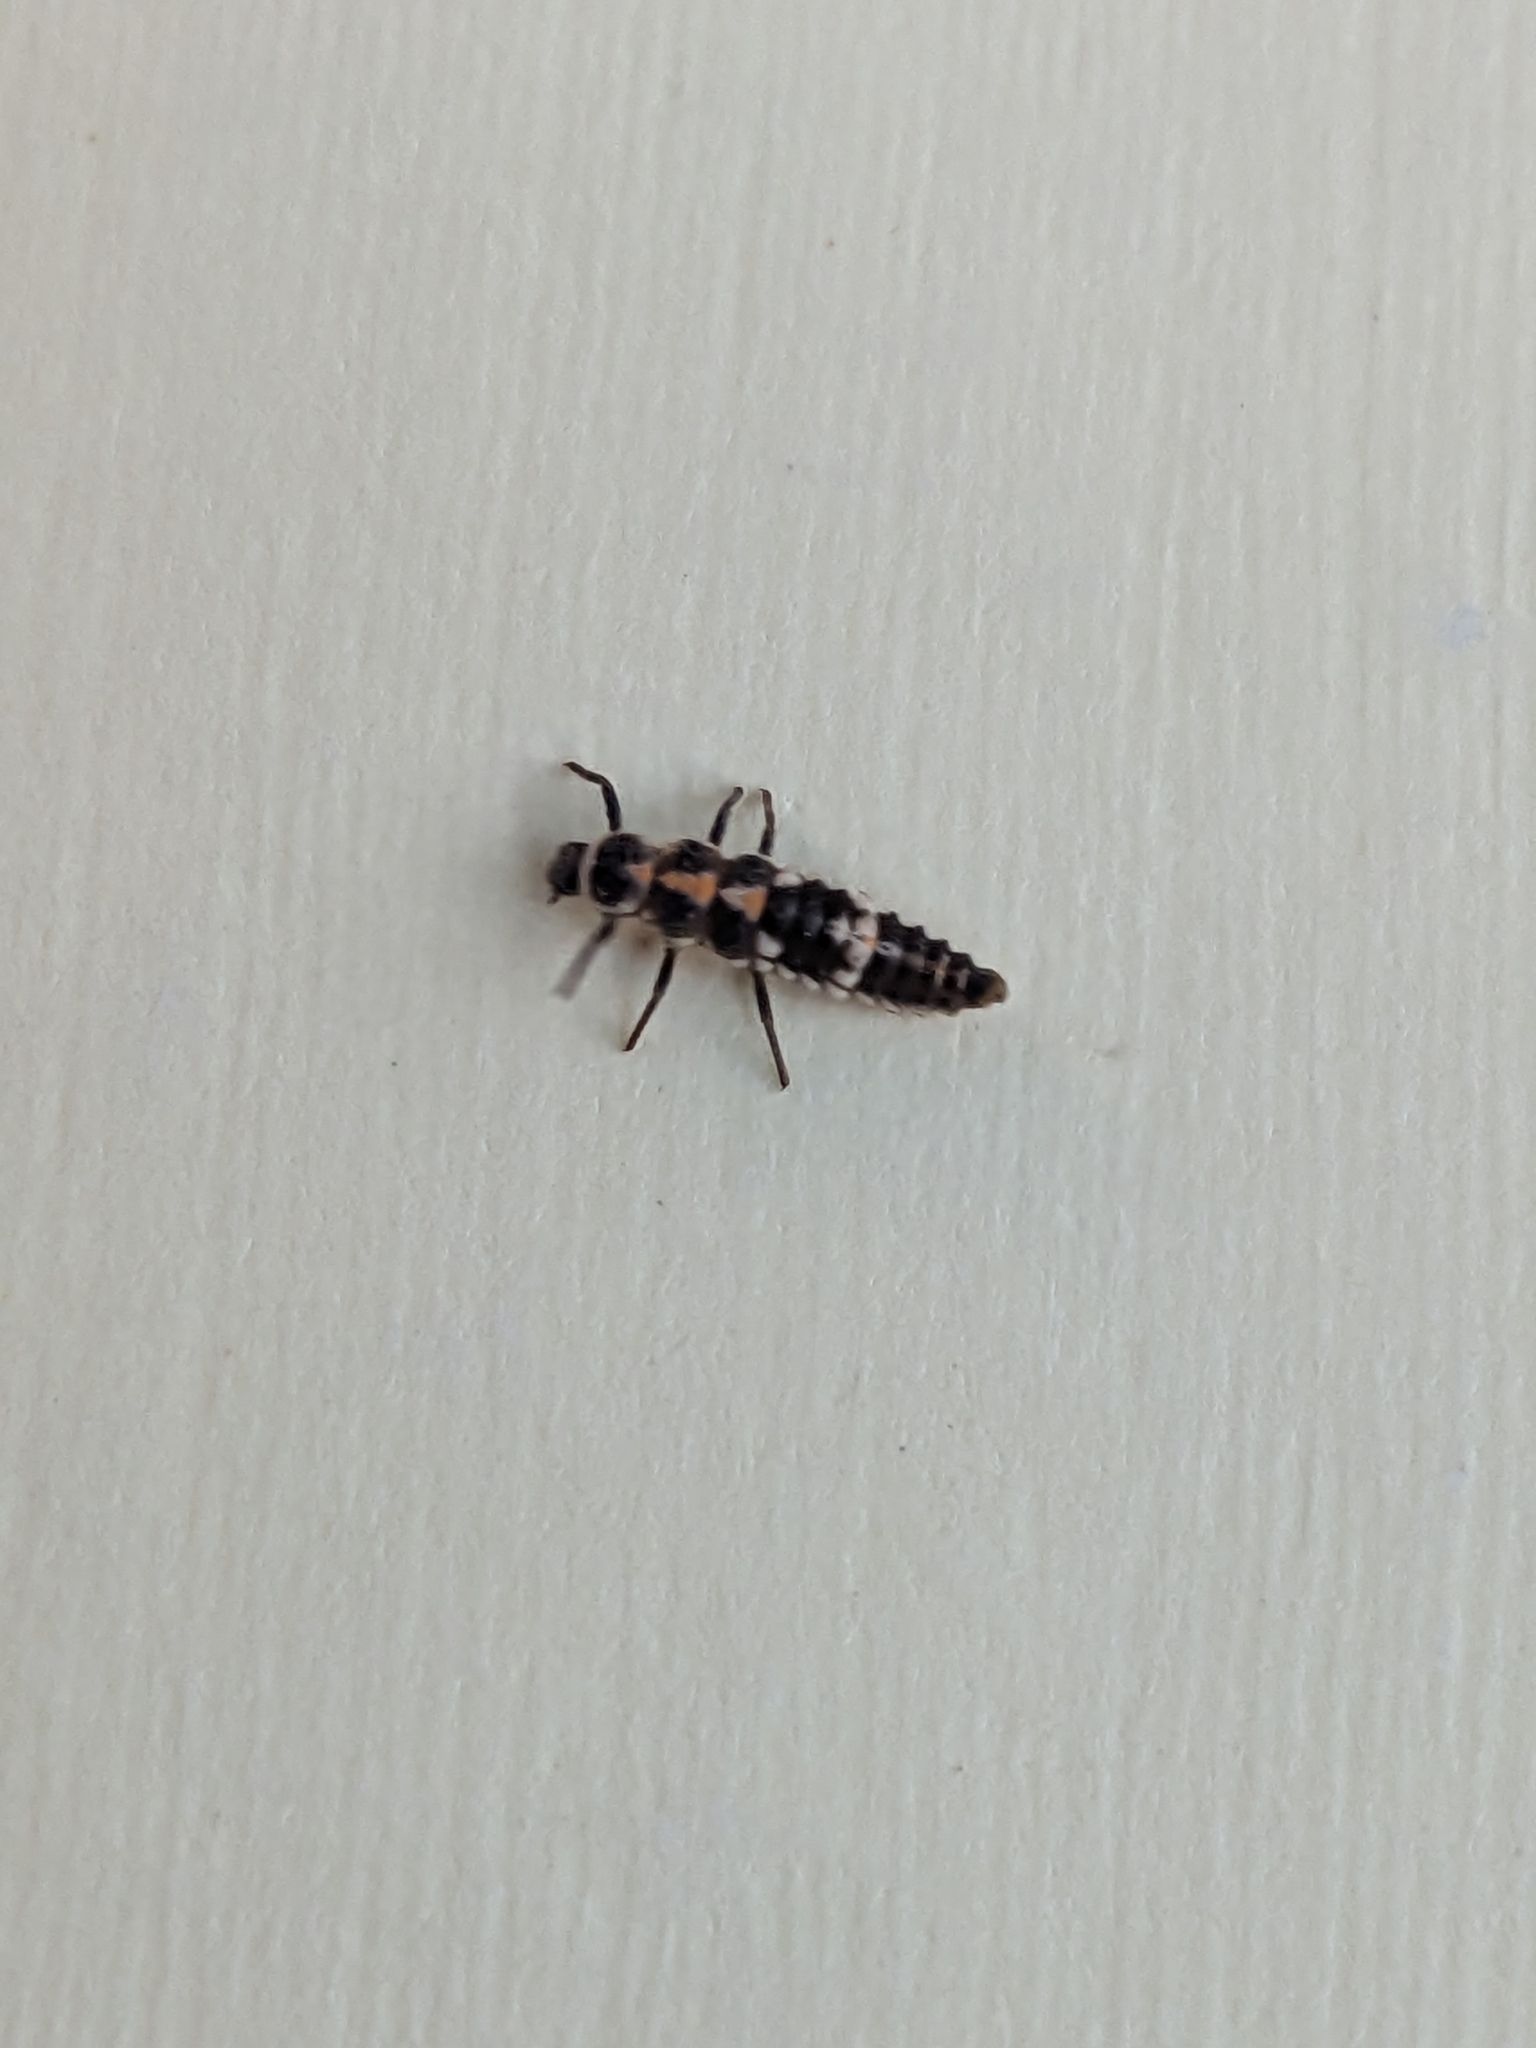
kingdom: Animalia
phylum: Arthropoda
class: Insecta
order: Coleoptera
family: Coccinellidae
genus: Oenopia
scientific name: Oenopia conglobata
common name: Ladybird beetle
